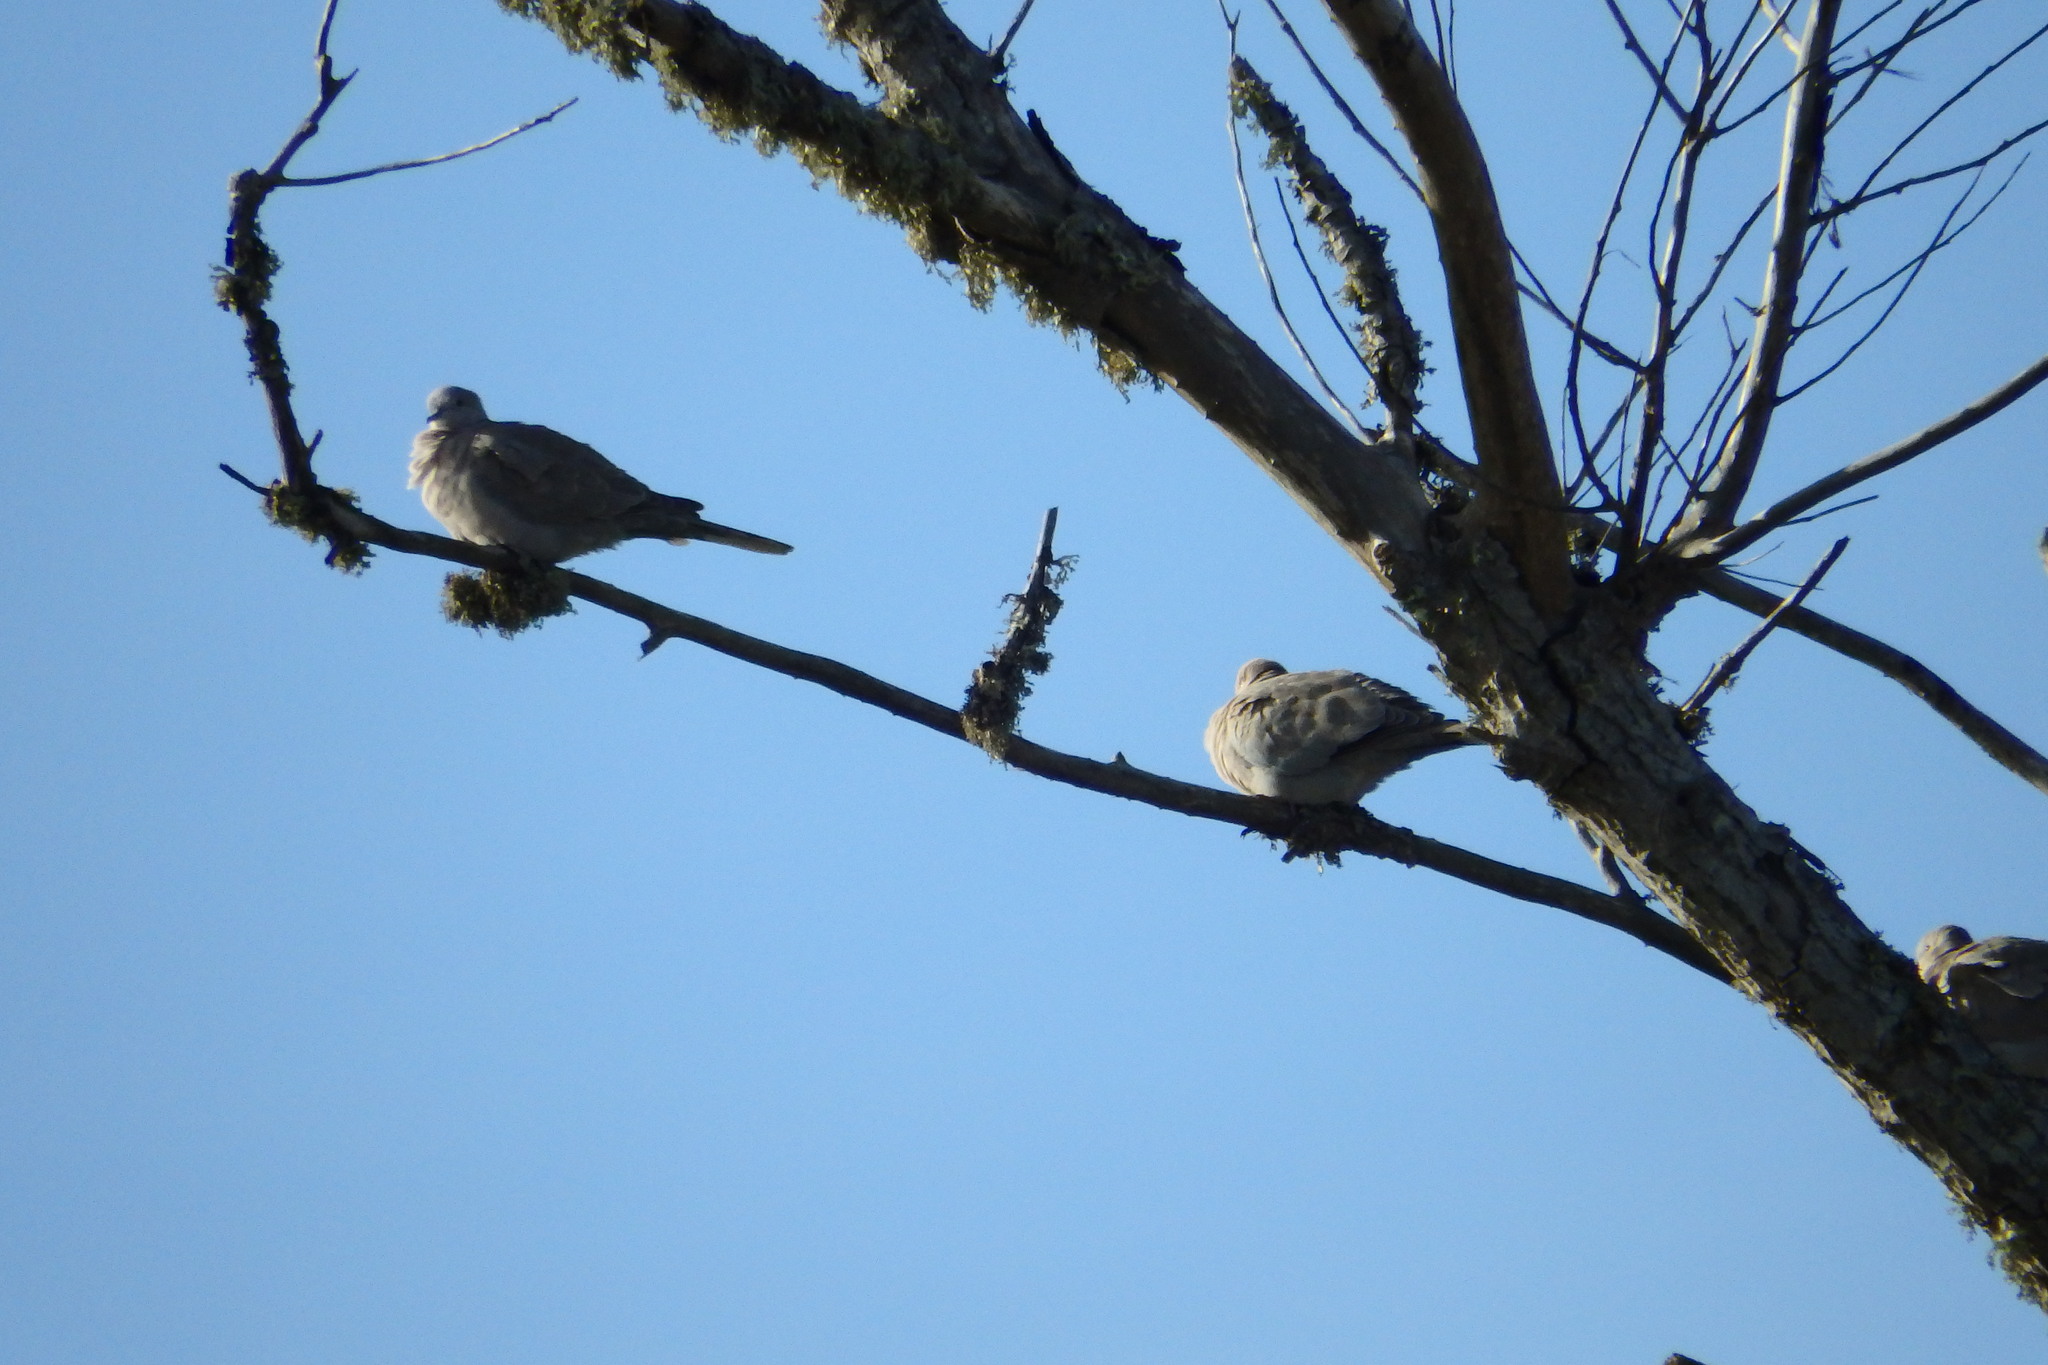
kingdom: Animalia
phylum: Chordata
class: Aves
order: Columbiformes
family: Columbidae
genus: Streptopelia
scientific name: Streptopelia decaocto
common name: Eurasian collared dove
